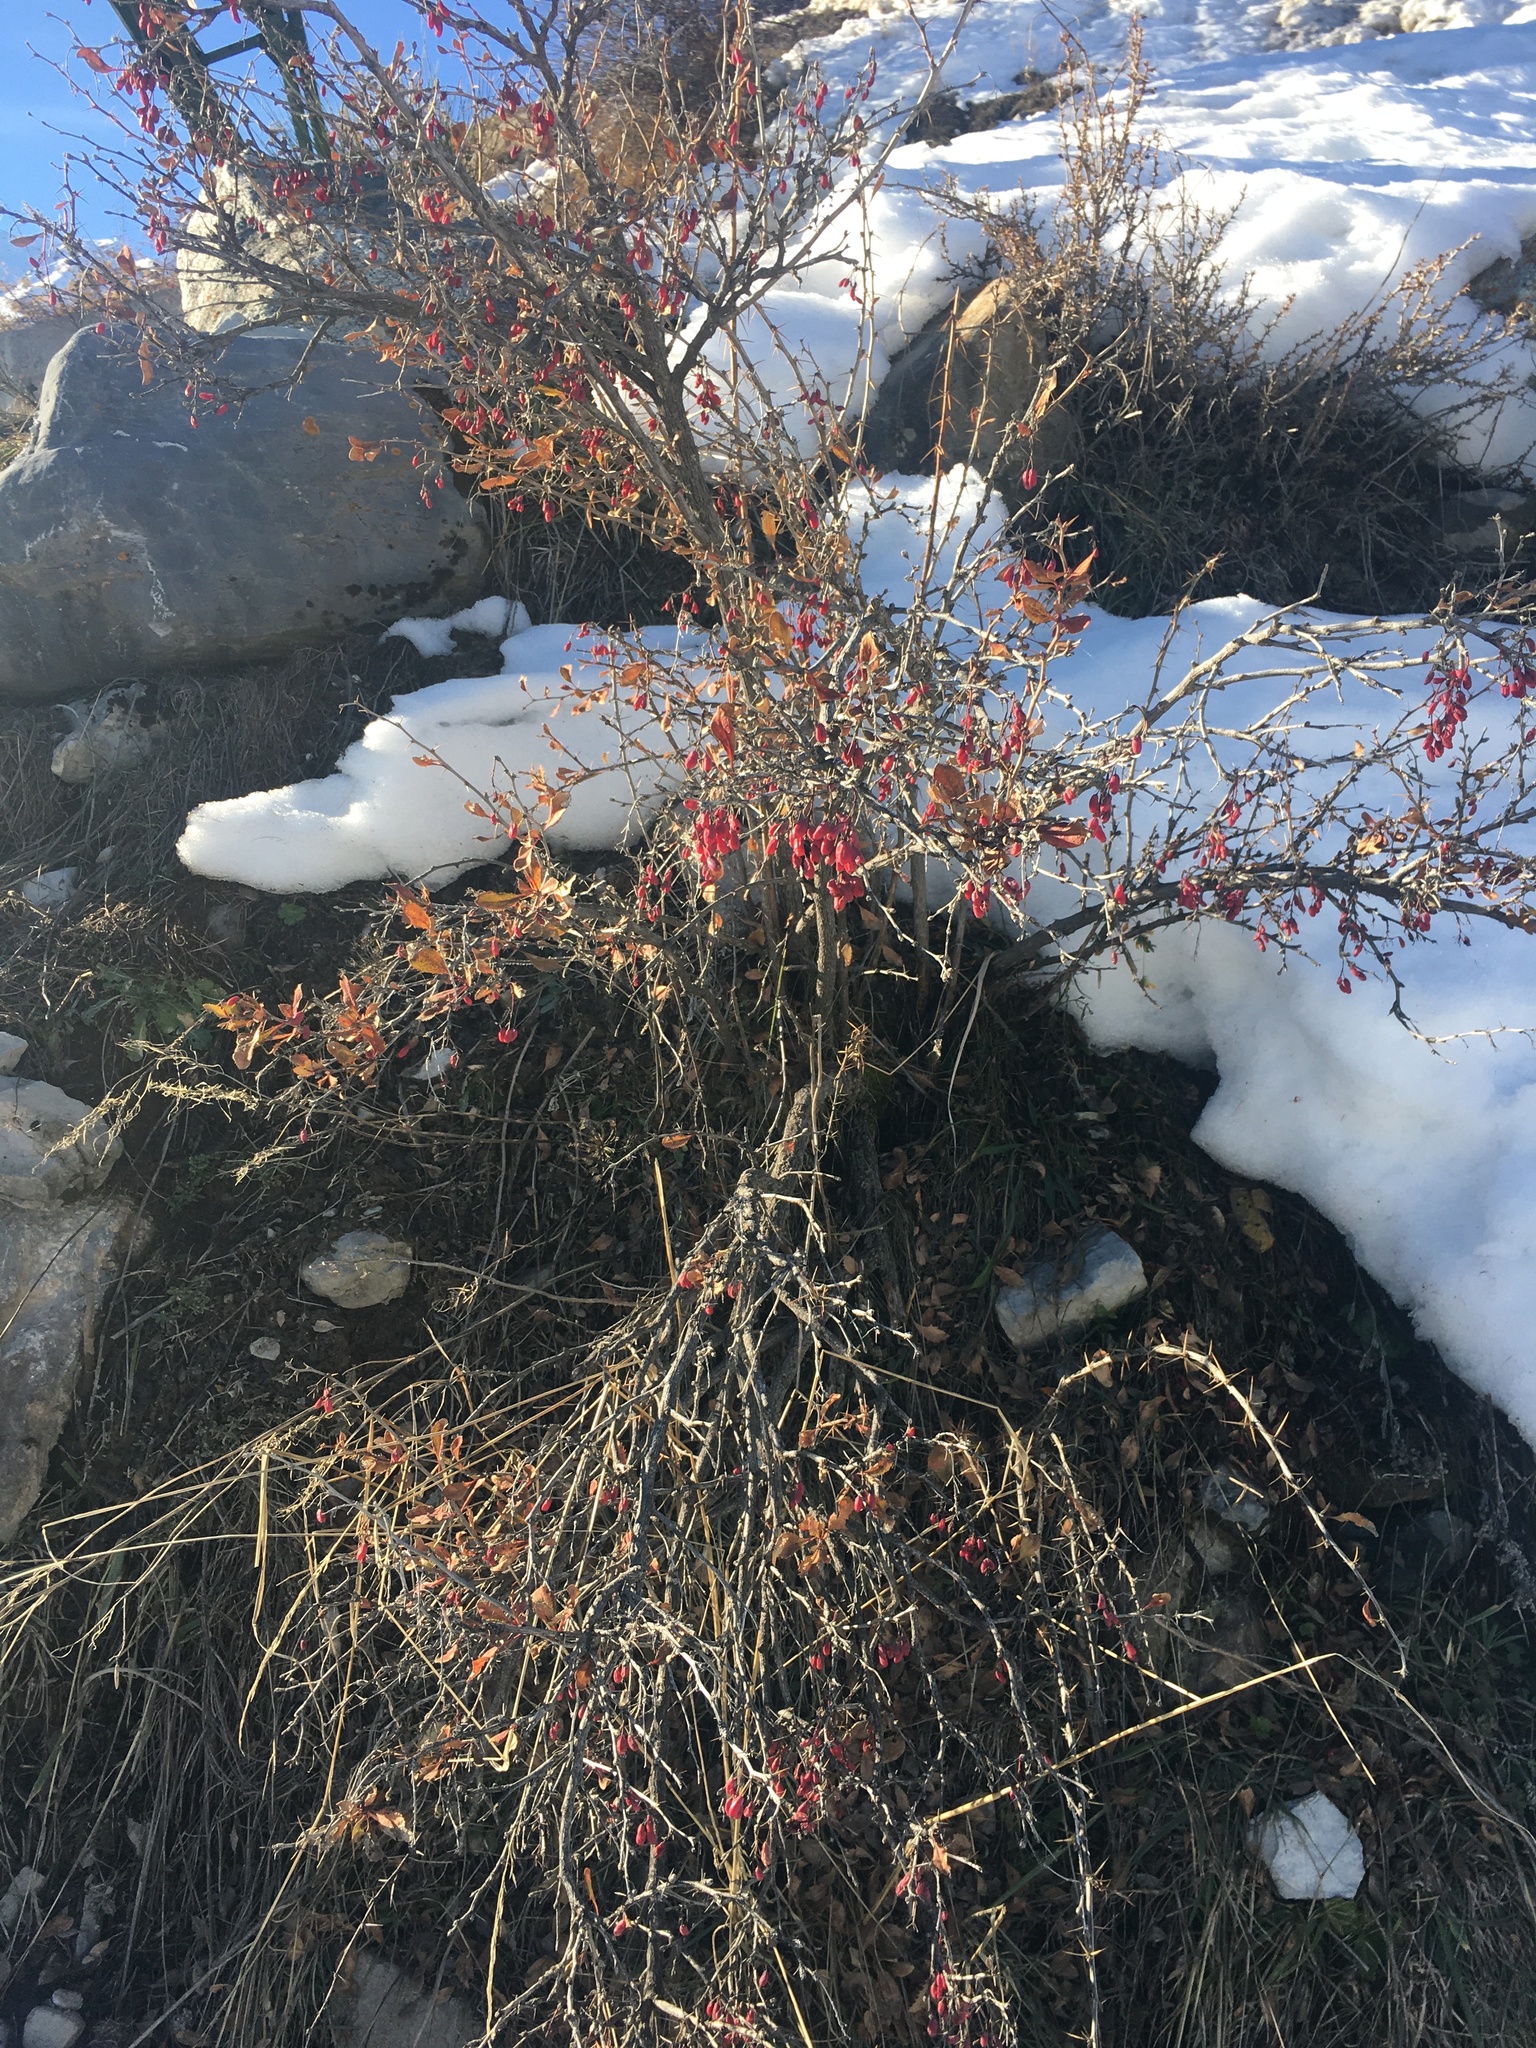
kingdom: Plantae
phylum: Tracheophyta
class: Magnoliopsida
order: Ranunculales
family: Berberidaceae
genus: Berberis
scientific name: Berberis vulgaris
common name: Barberry
